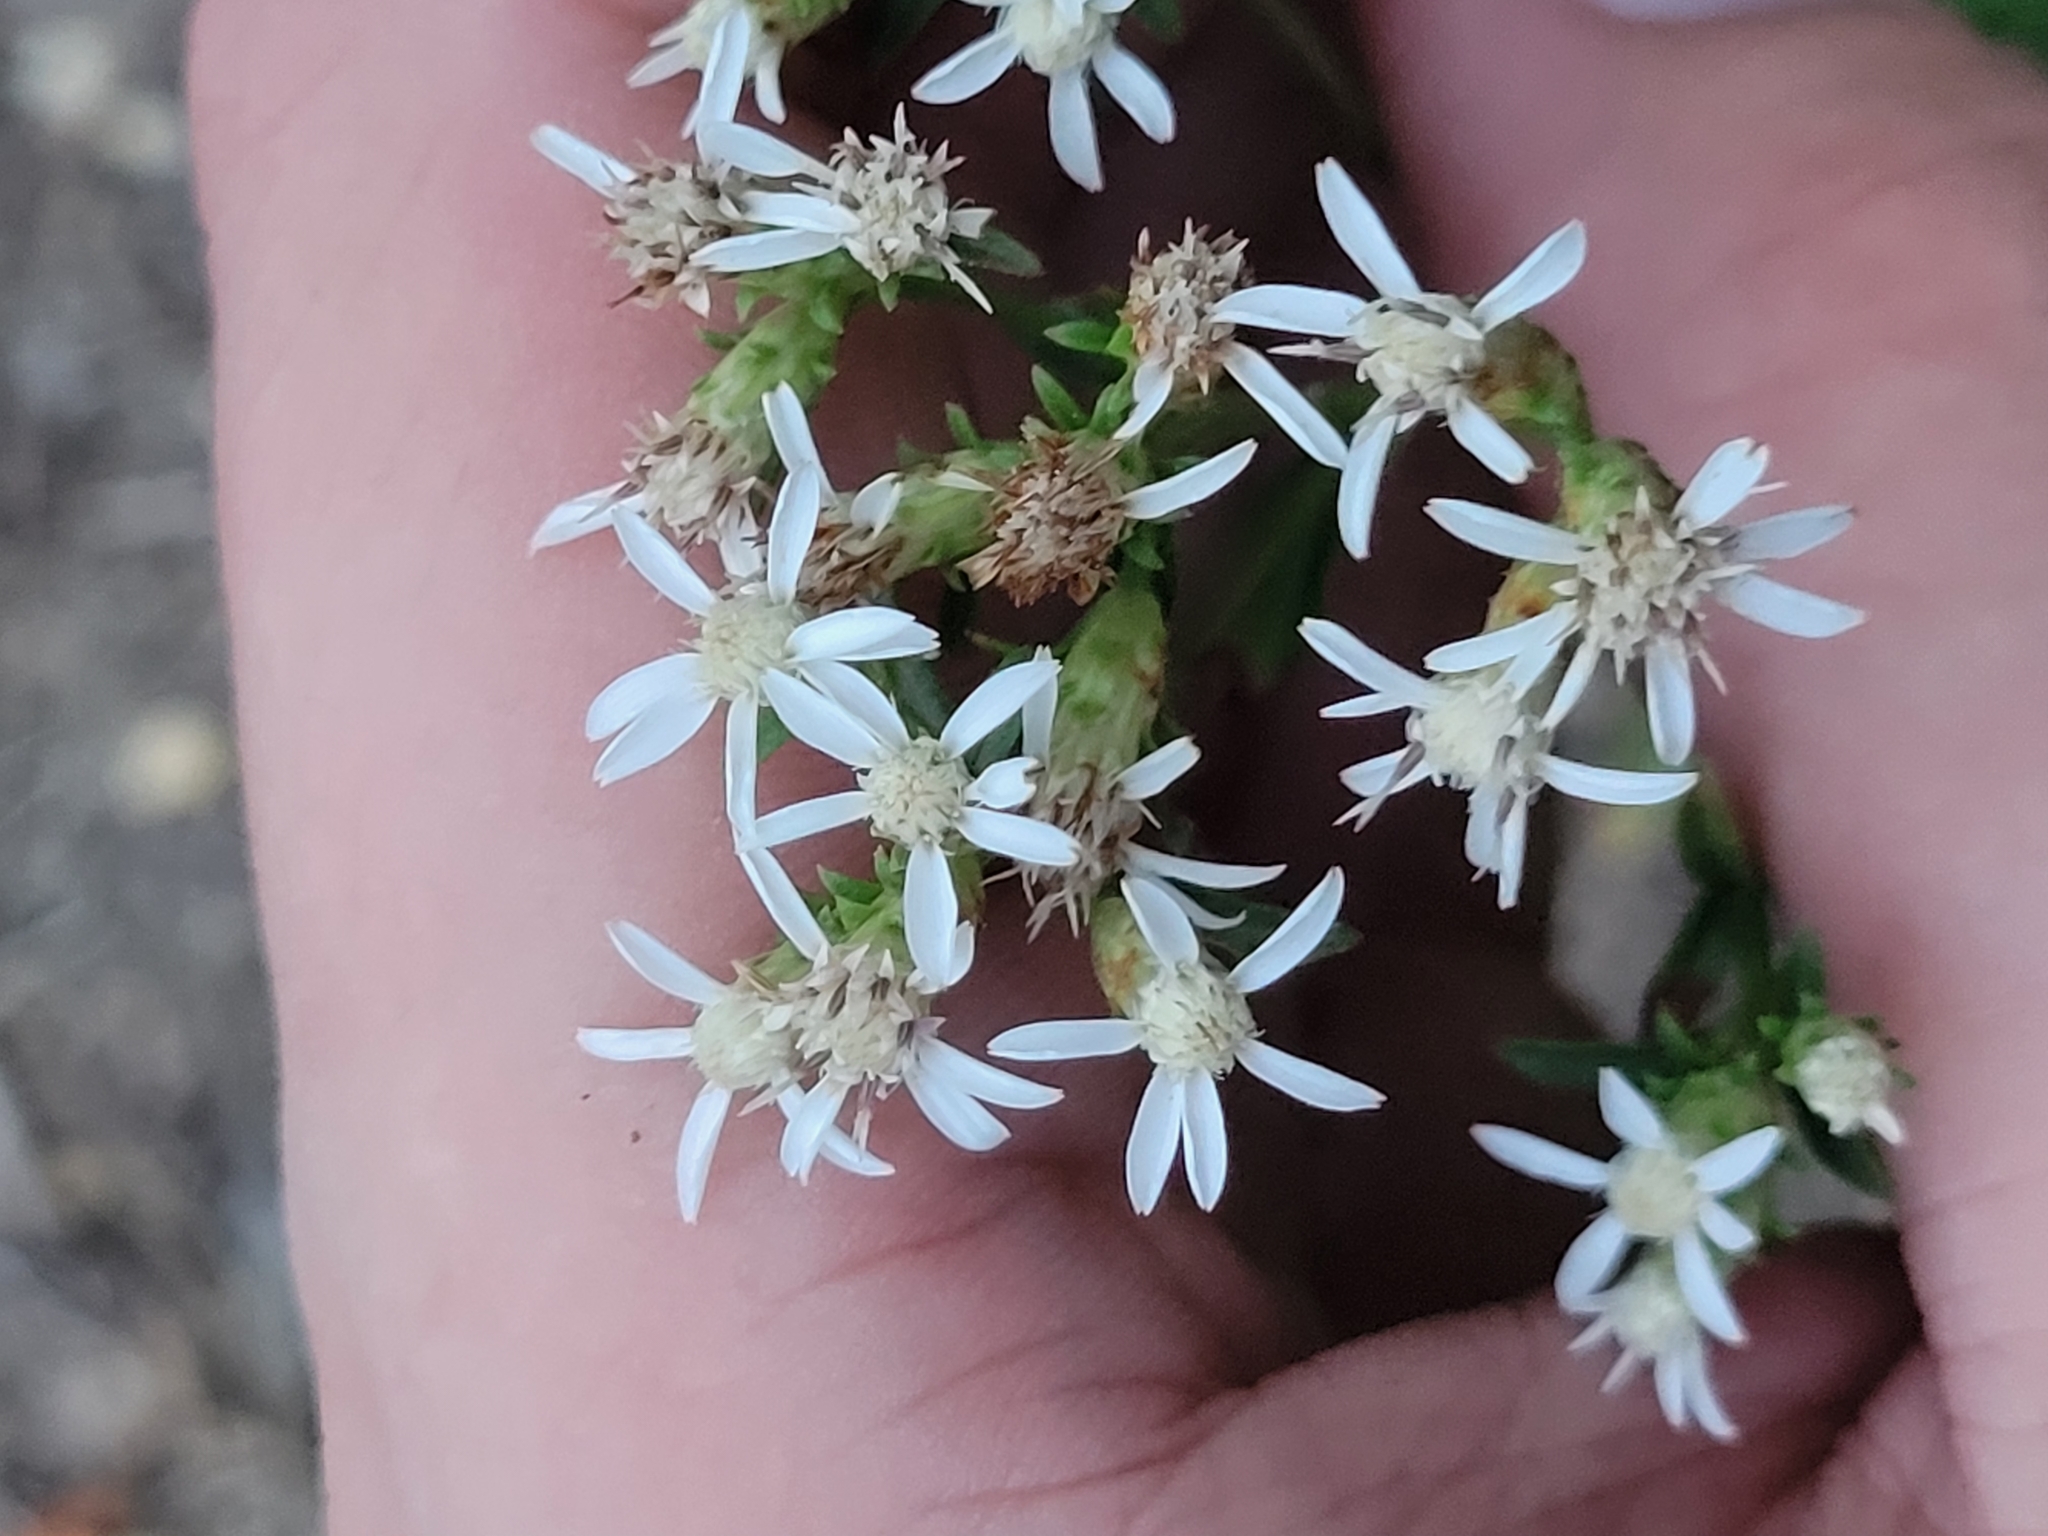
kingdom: Plantae
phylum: Tracheophyta
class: Magnoliopsida
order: Asterales
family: Asteraceae
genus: Sericocarpus
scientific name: Sericocarpus linifolius
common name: Narrow-leaf aster
